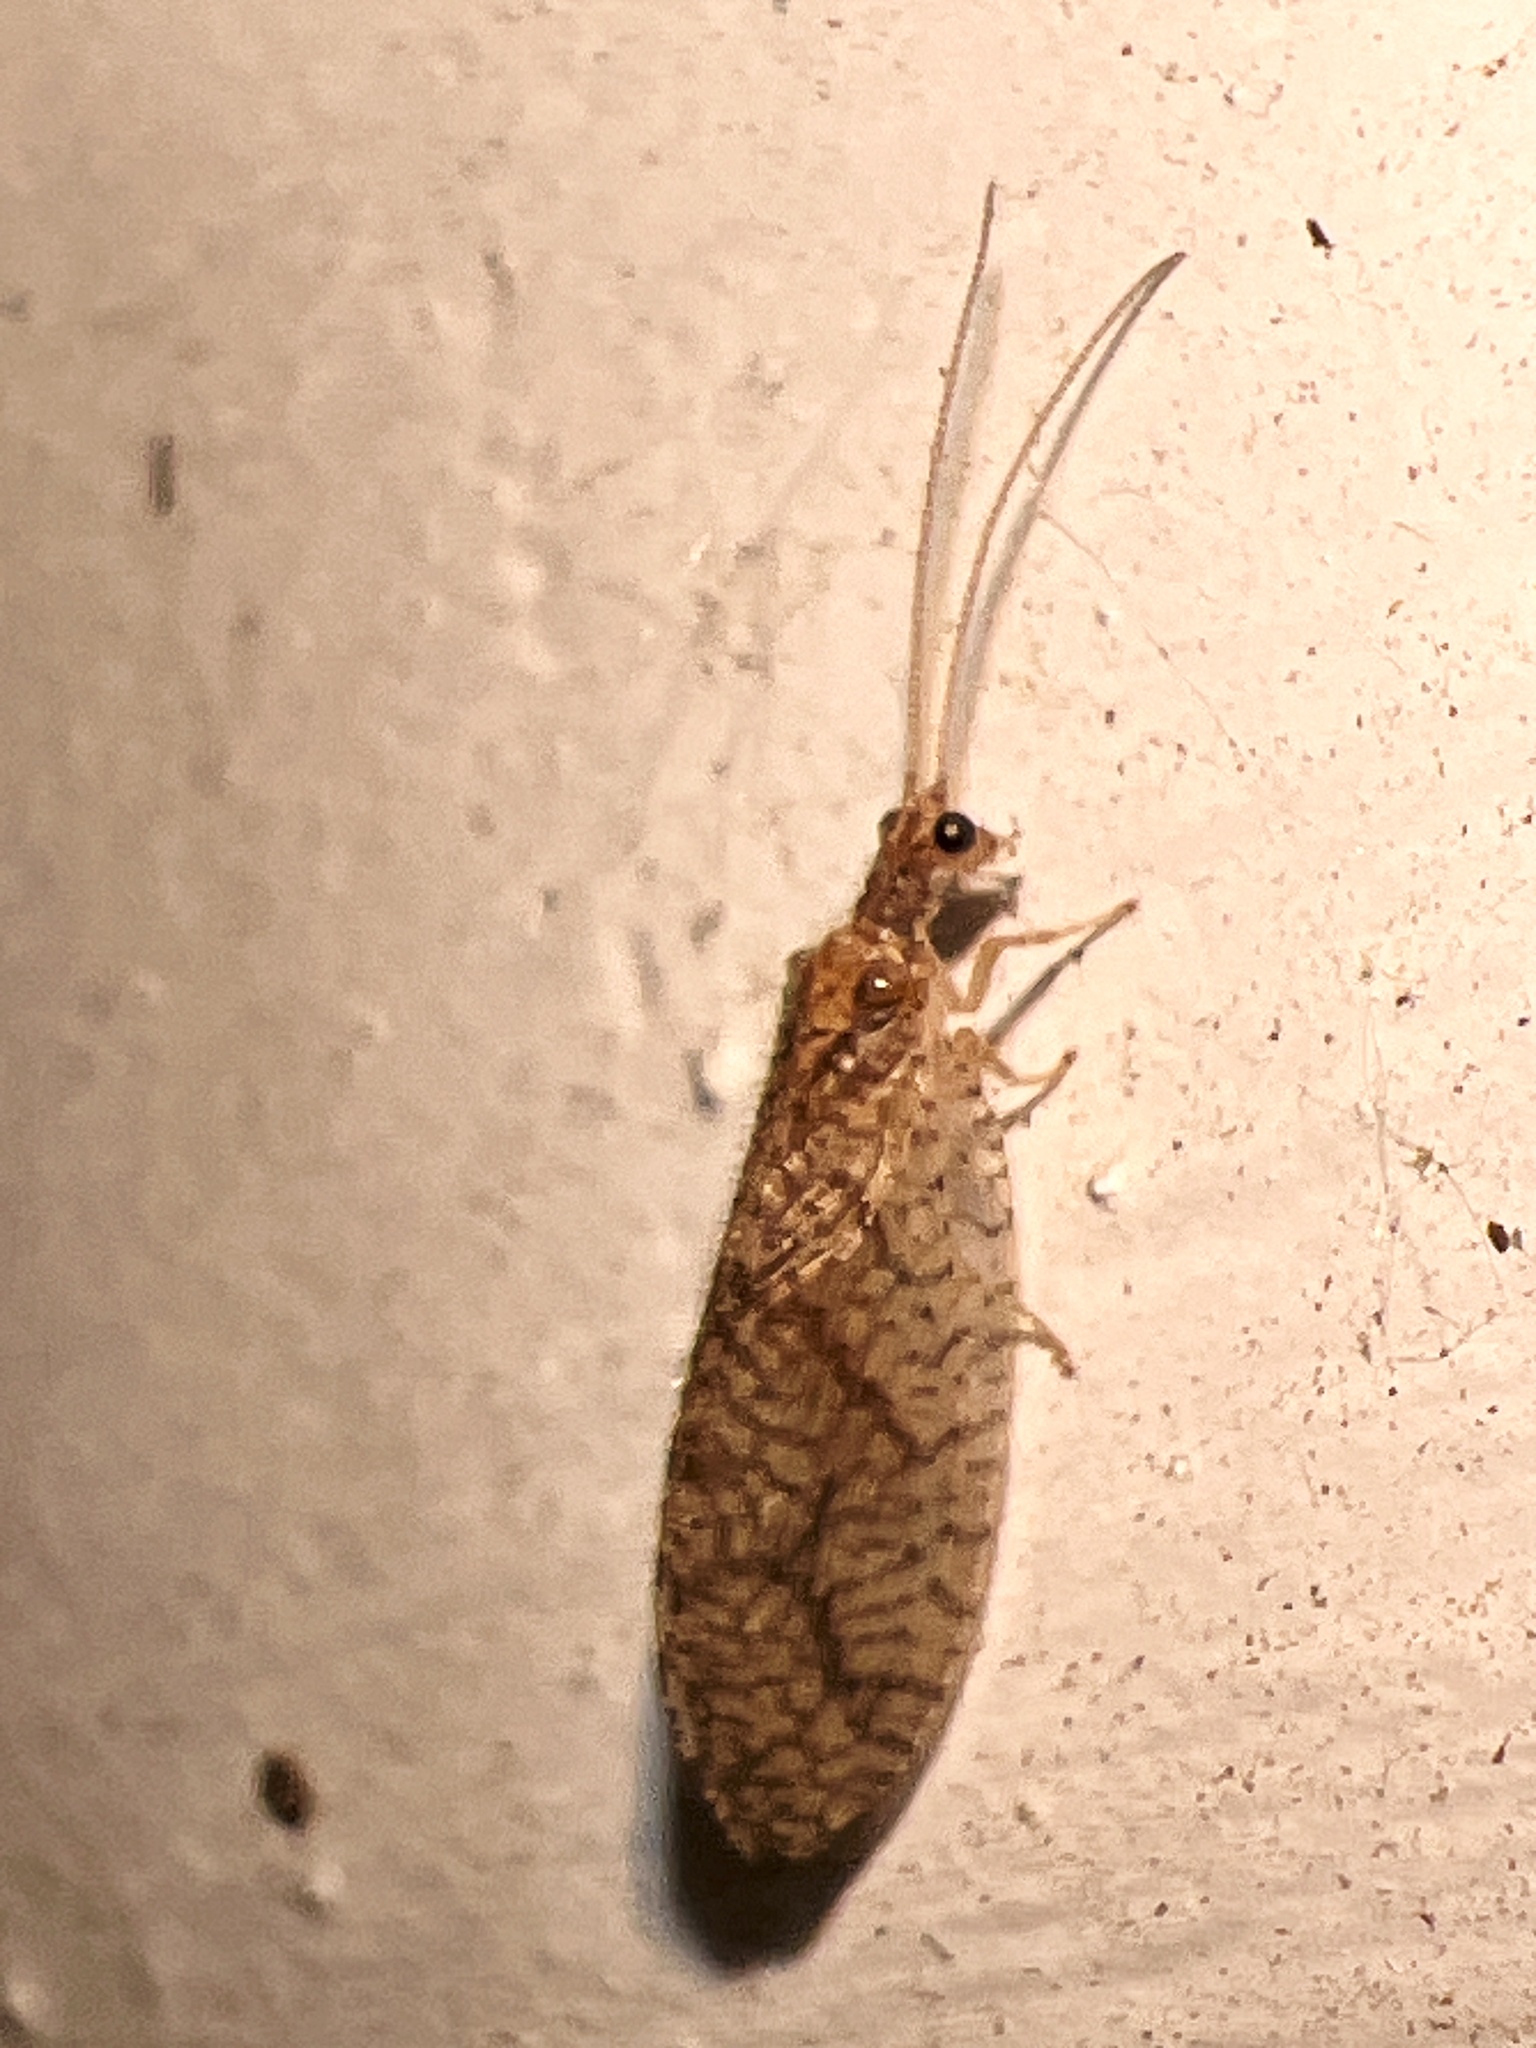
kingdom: Animalia
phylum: Arthropoda
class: Insecta
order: Neuroptera
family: Hemerobiidae
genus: Micromus
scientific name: Micromus posticus
